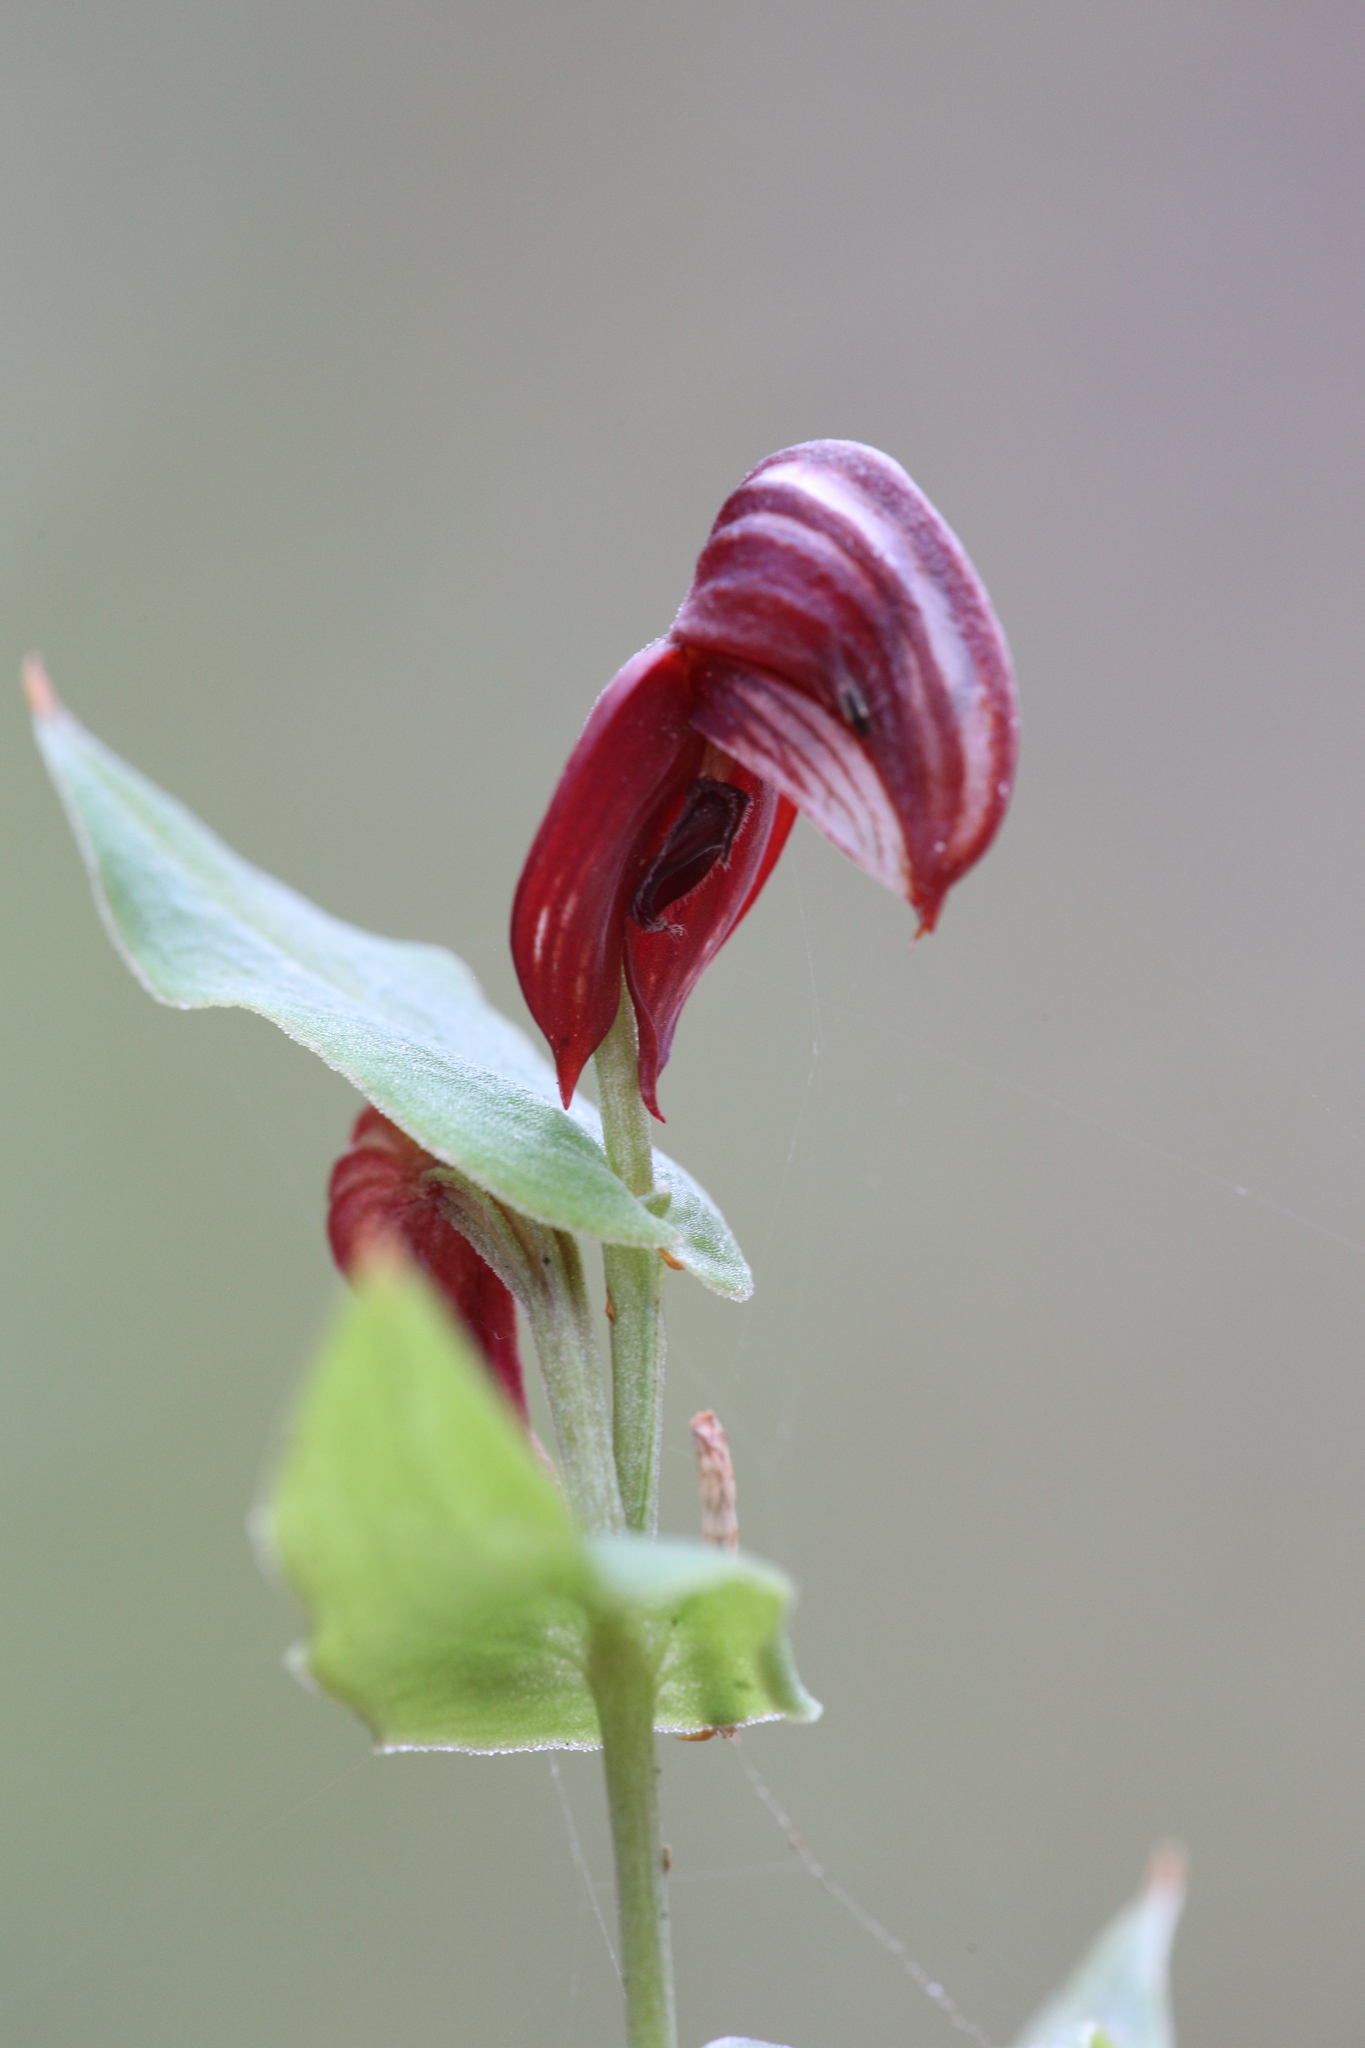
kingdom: Plantae
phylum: Tracheophyta
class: Liliopsida
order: Asparagales
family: Orchidaceae
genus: Pterostylis
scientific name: Pterostylis sanguinea
